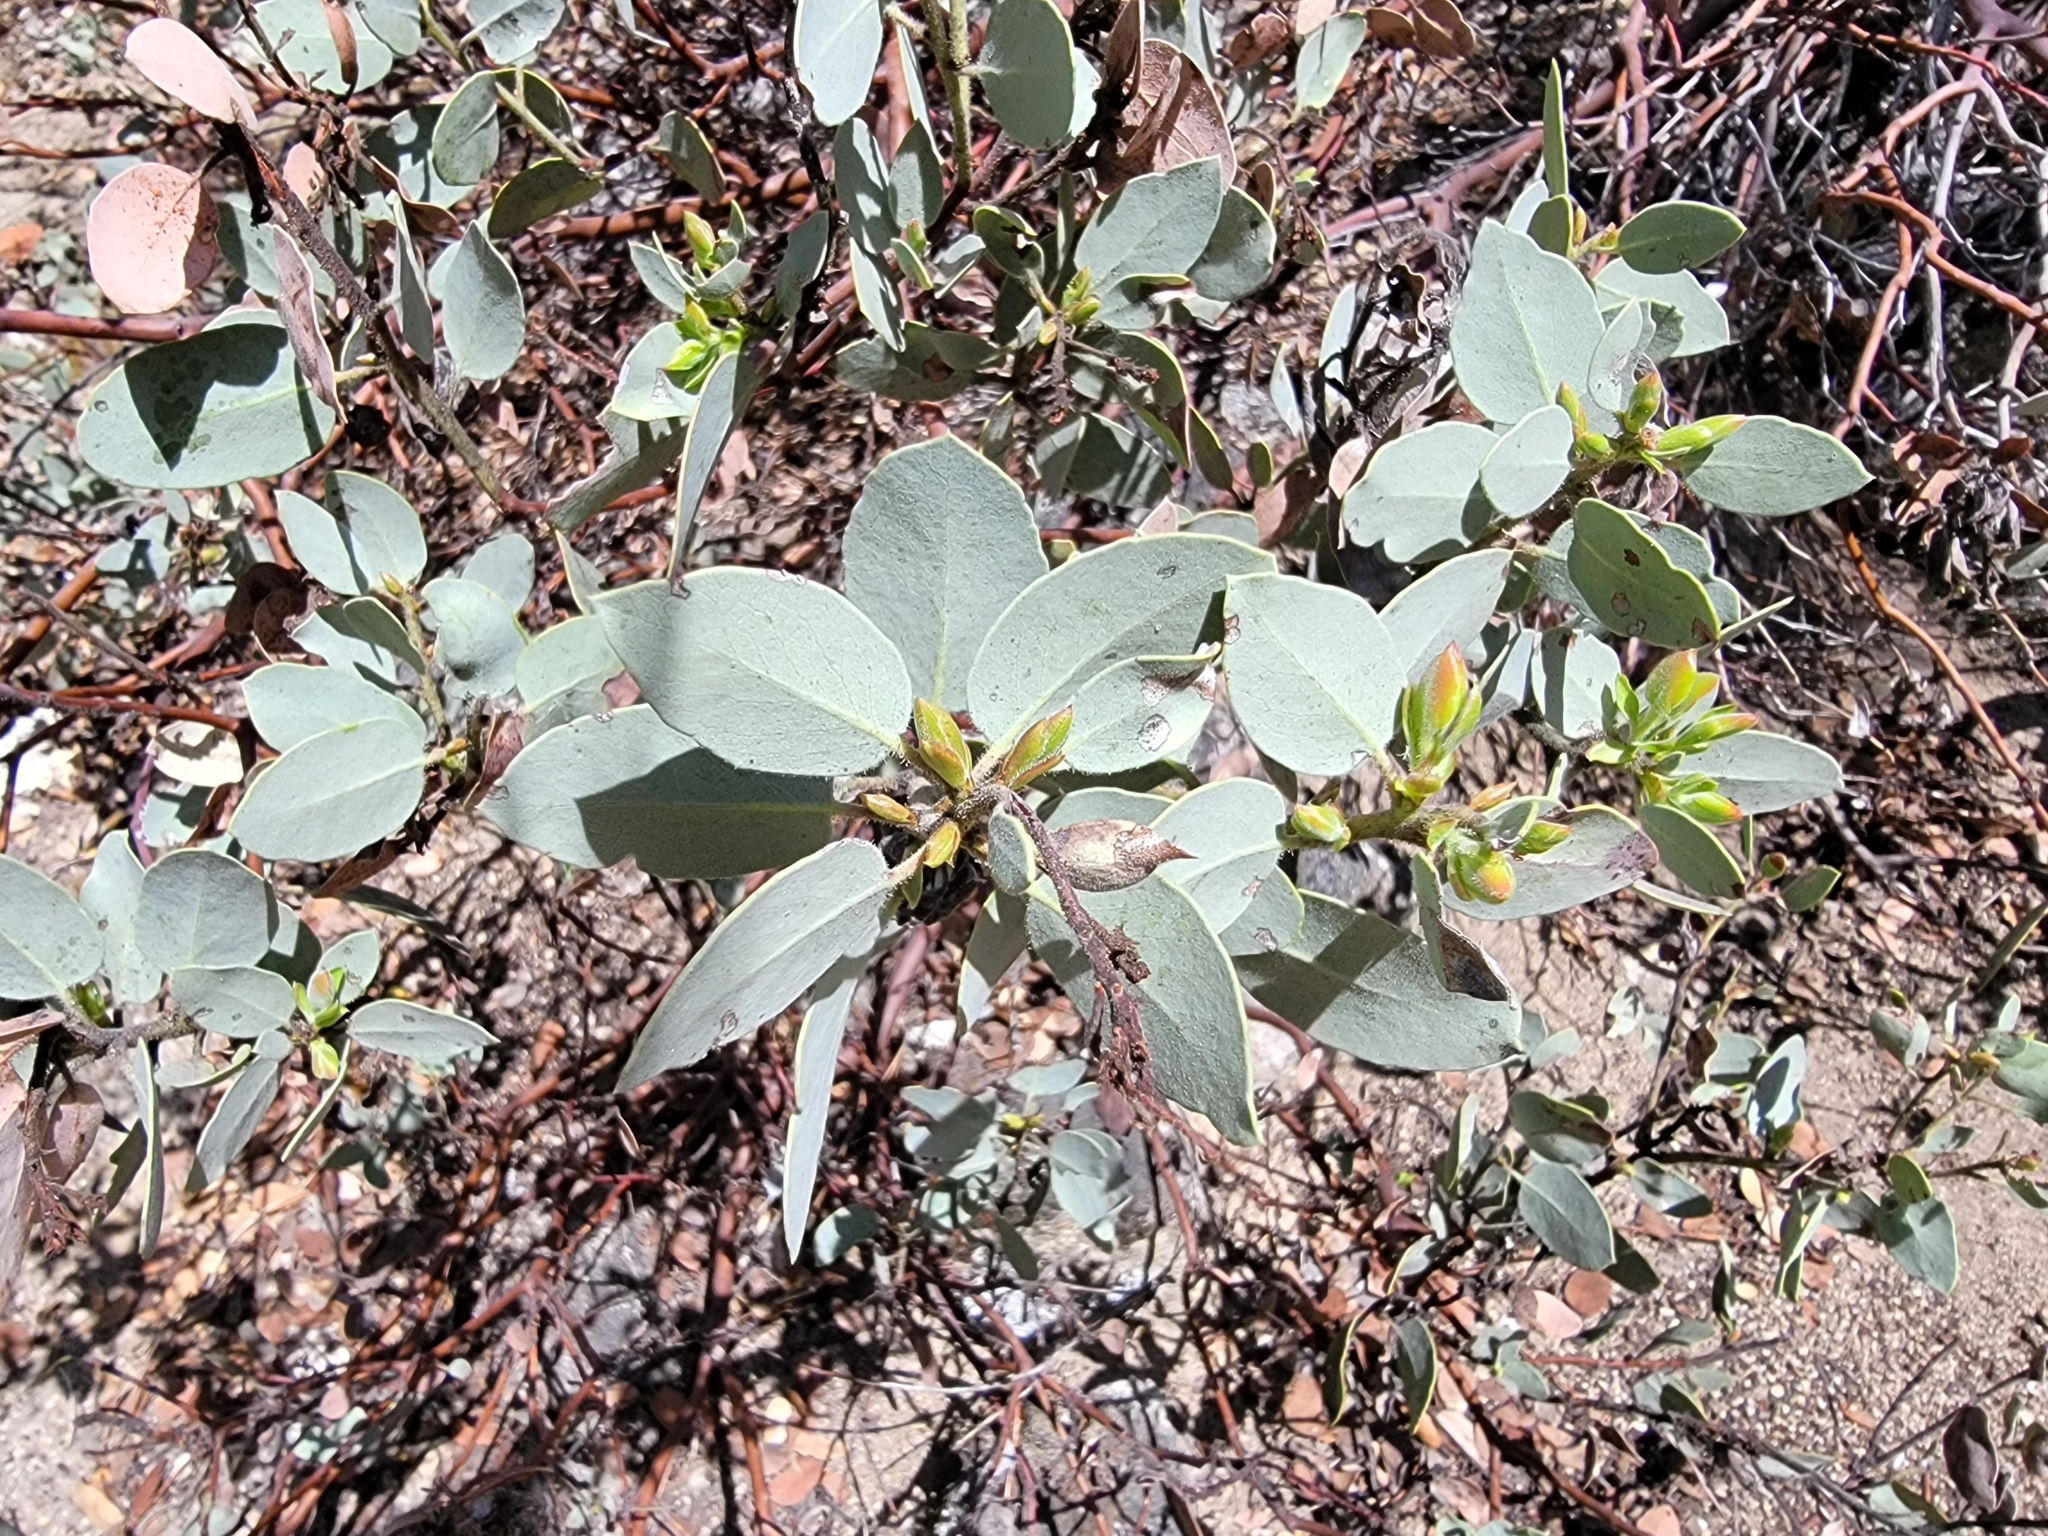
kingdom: Plantae
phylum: Tracheophyta
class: Magnoliopsida
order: Ericales
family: Ericaceae
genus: Arctostaphylos
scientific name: Arctostaphylos viscida
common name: White-leaf manzanita
